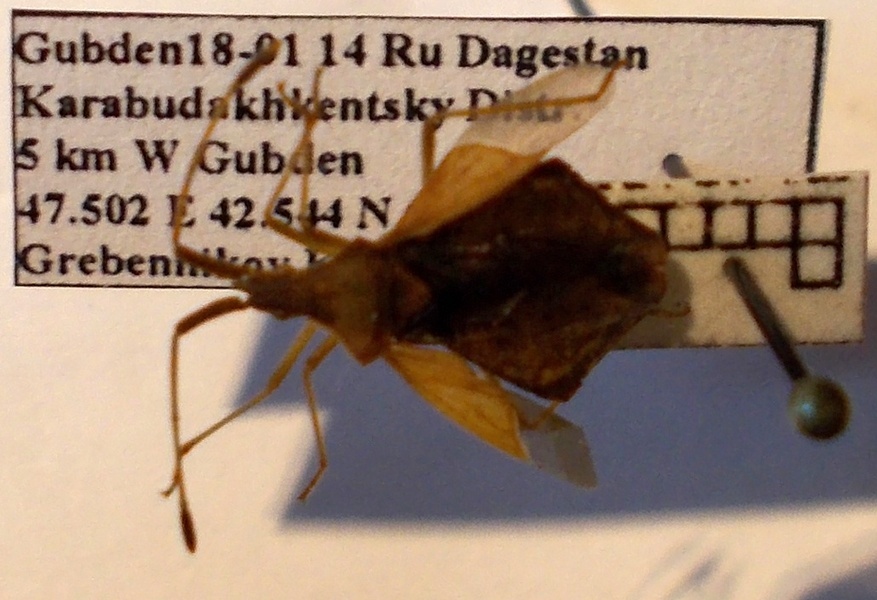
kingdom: Animalia
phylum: Arthropoda
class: Insecta
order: Hemiptera
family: Coreidae
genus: Syromastus
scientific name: Syromastus rhombeus
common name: Rhombic leatherbug
